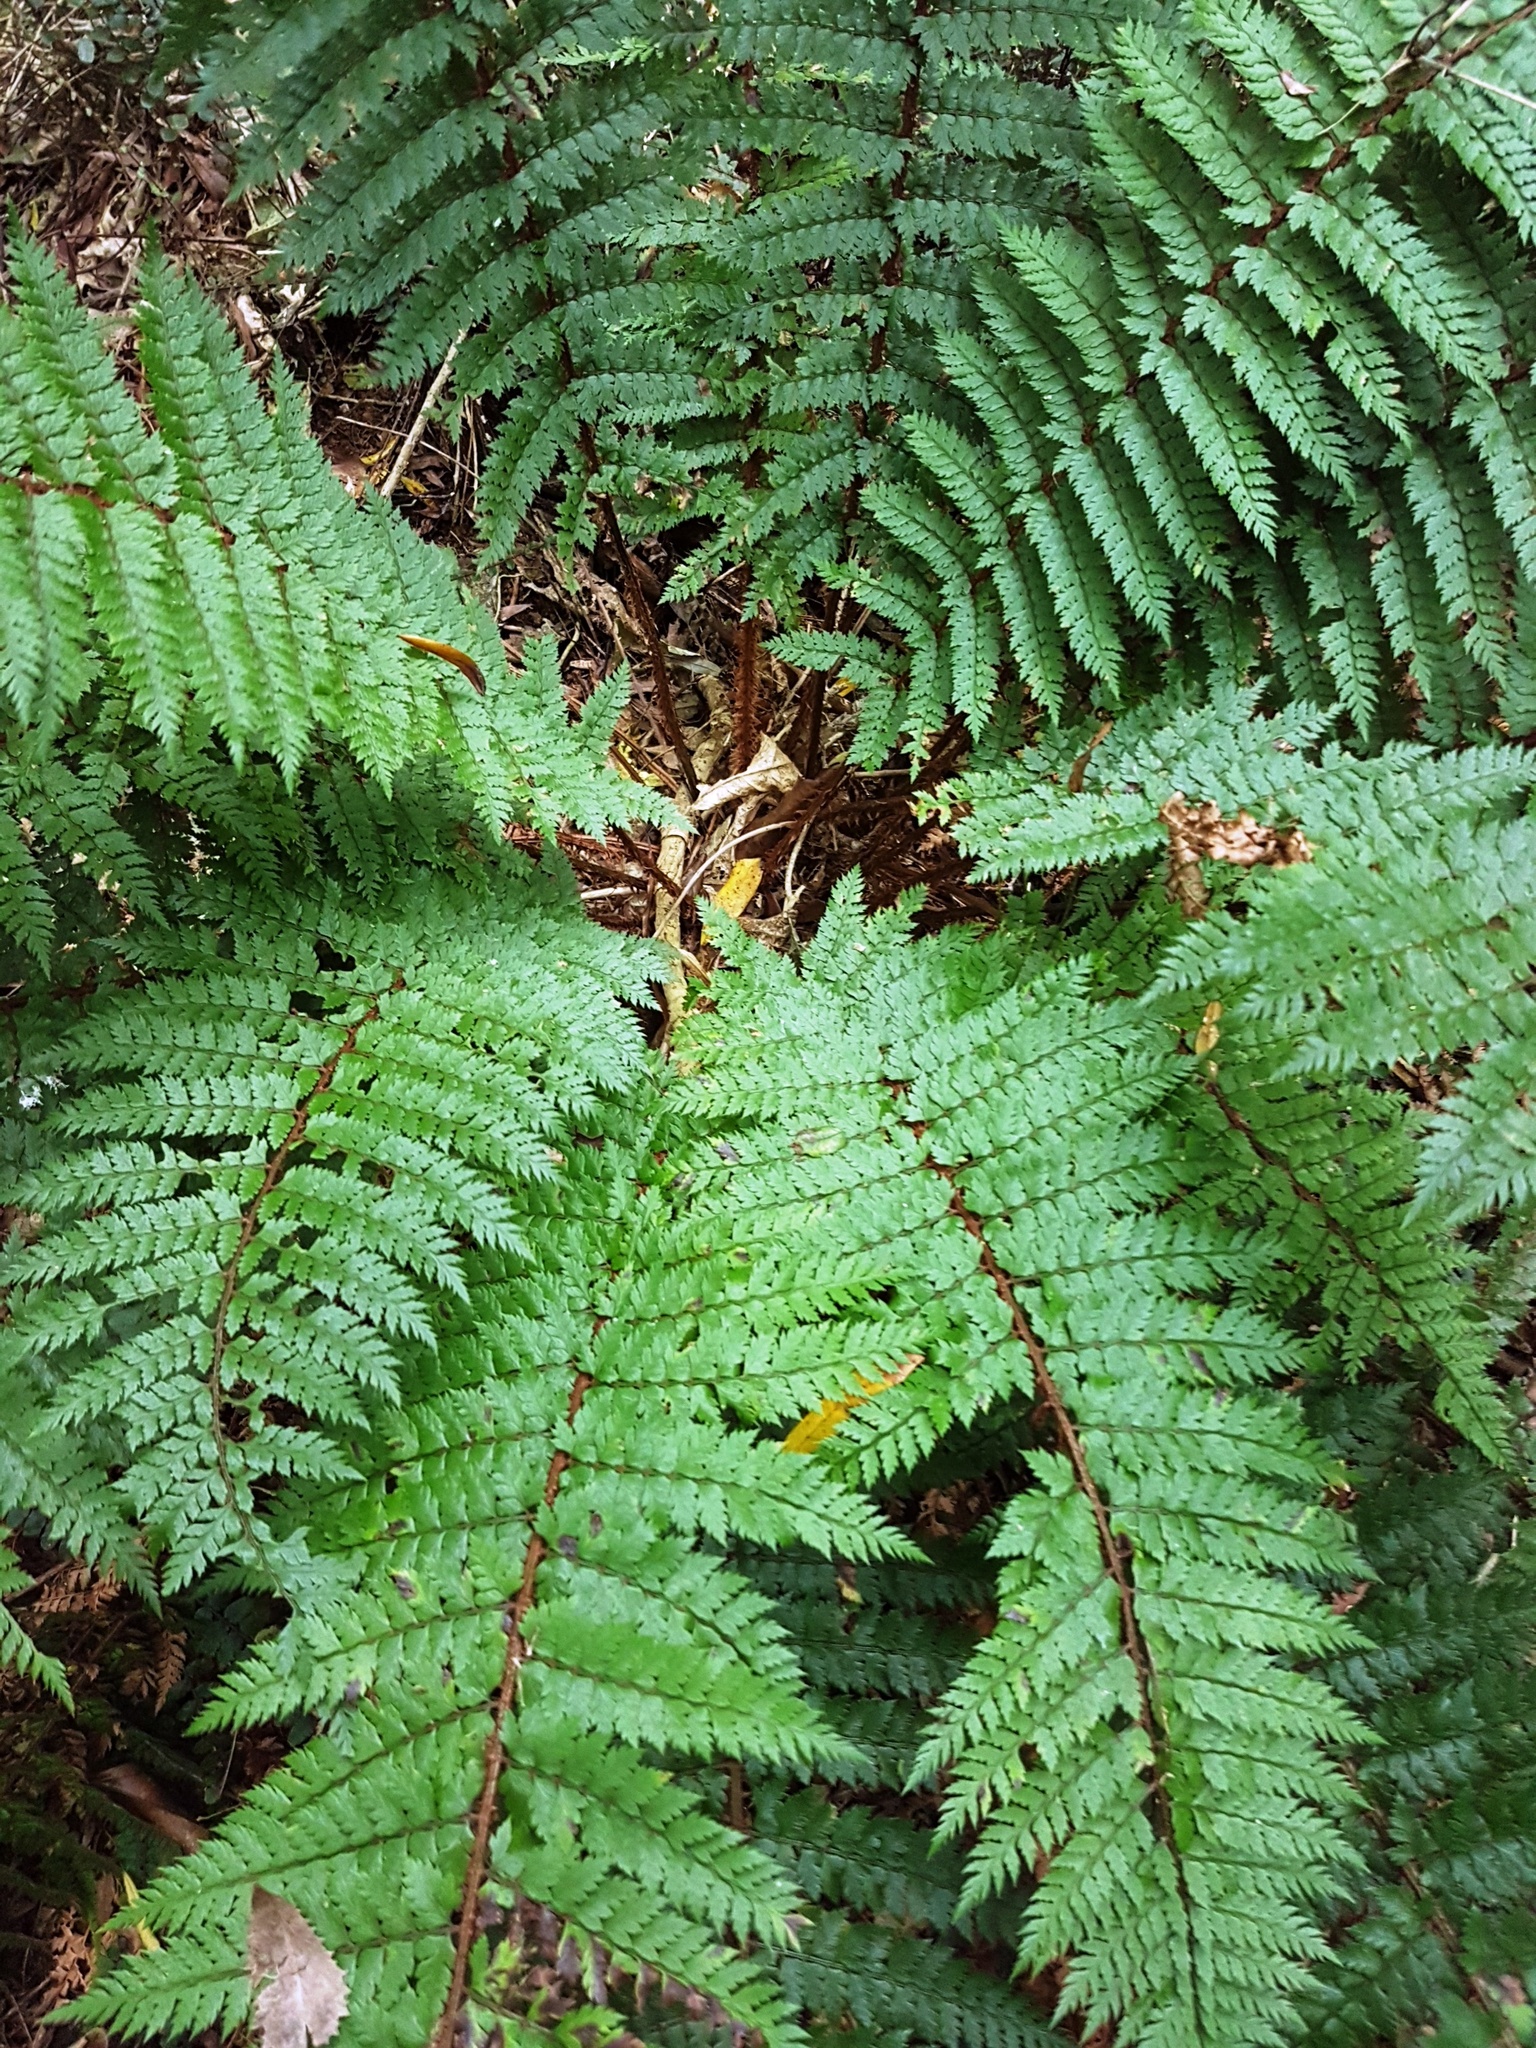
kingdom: Plantae
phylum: Tracheophyta
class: Polypodiopsida
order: Polypodiales
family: Dryopteridaceae
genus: Polystichum
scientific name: Polystichum vestitum
